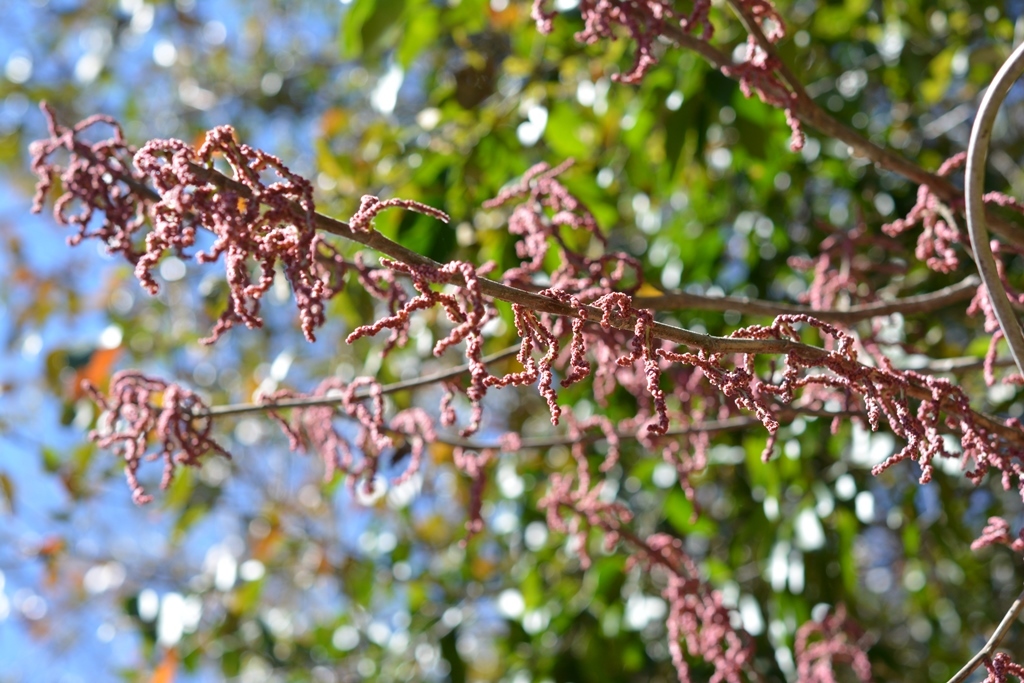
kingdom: Plantae
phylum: Tracheophyta
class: Magnoliopsida
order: Rosales
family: Urticaceae
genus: Myriocarpa
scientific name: Myriocarpa heterospicata
